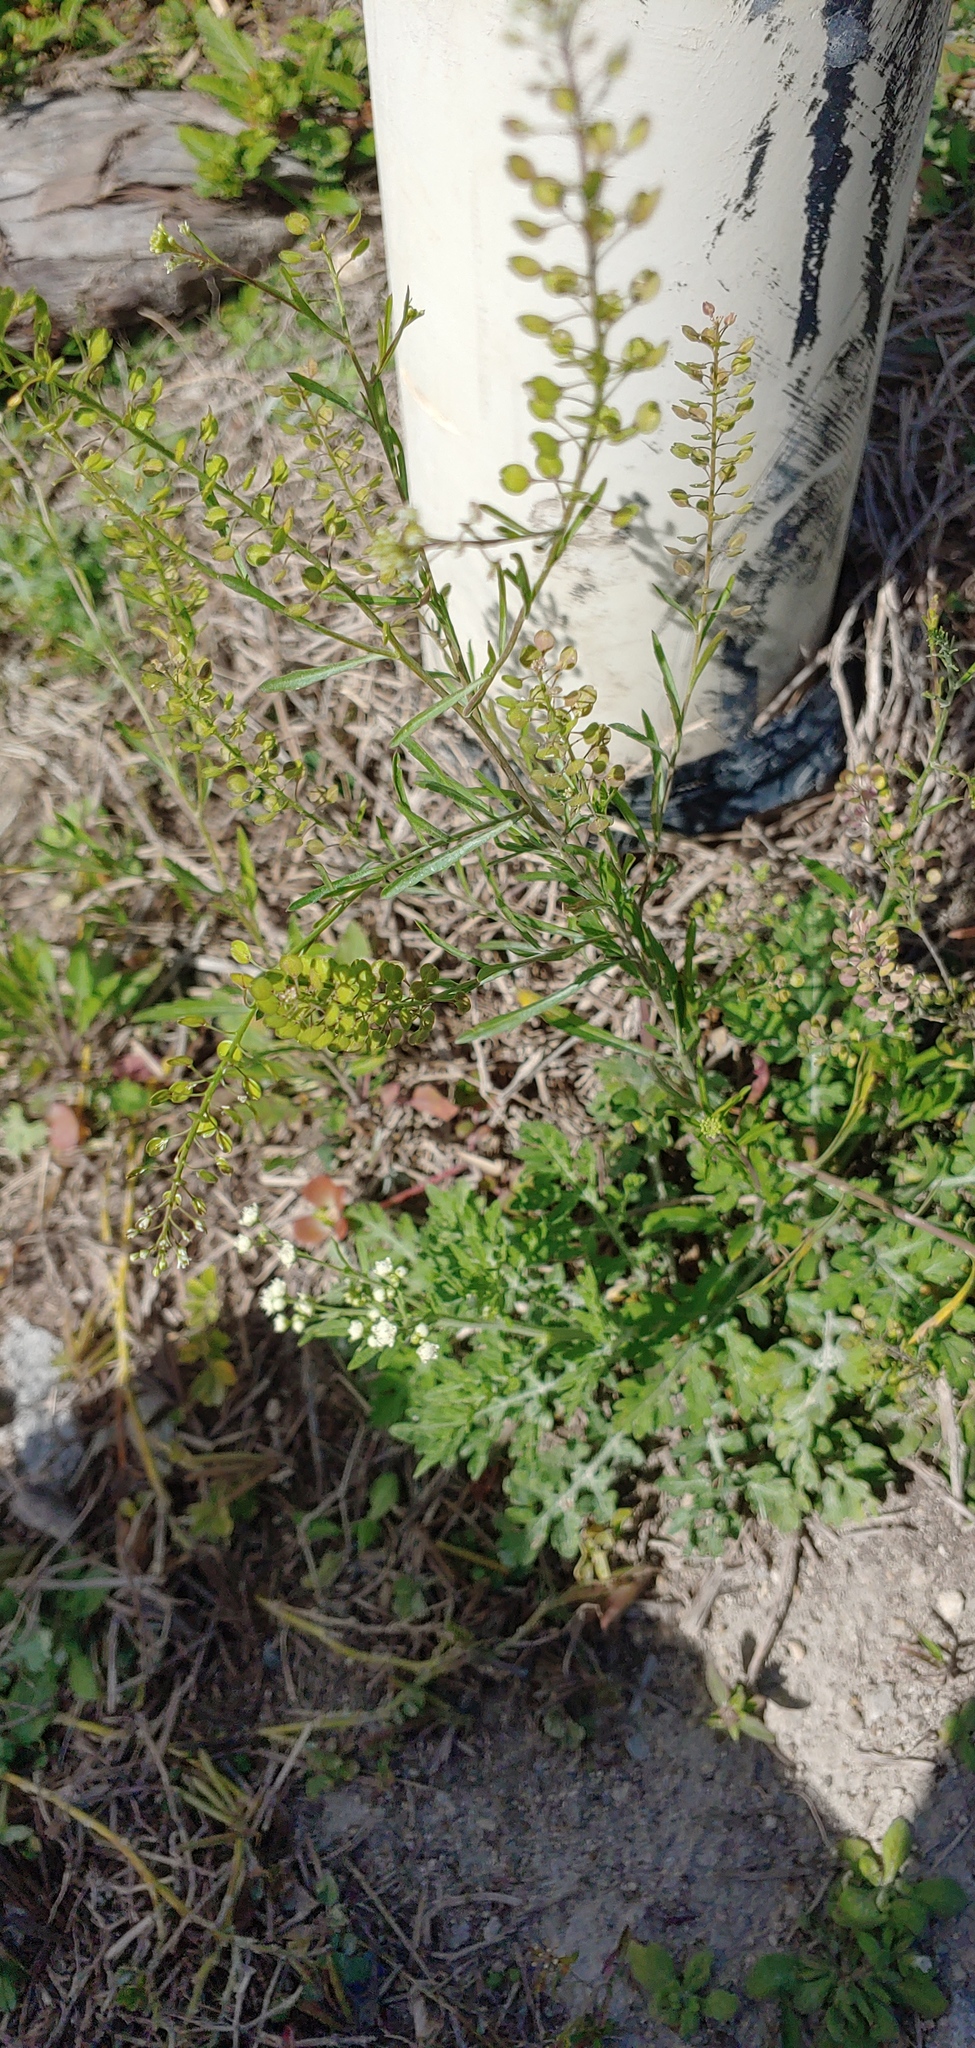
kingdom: Plantae
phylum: Tracheophyta
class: Magnoliopsida
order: Brassicales
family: Brassicaceae
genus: Lepidium
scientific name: Lepidium virginicum
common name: Least pepperwort
